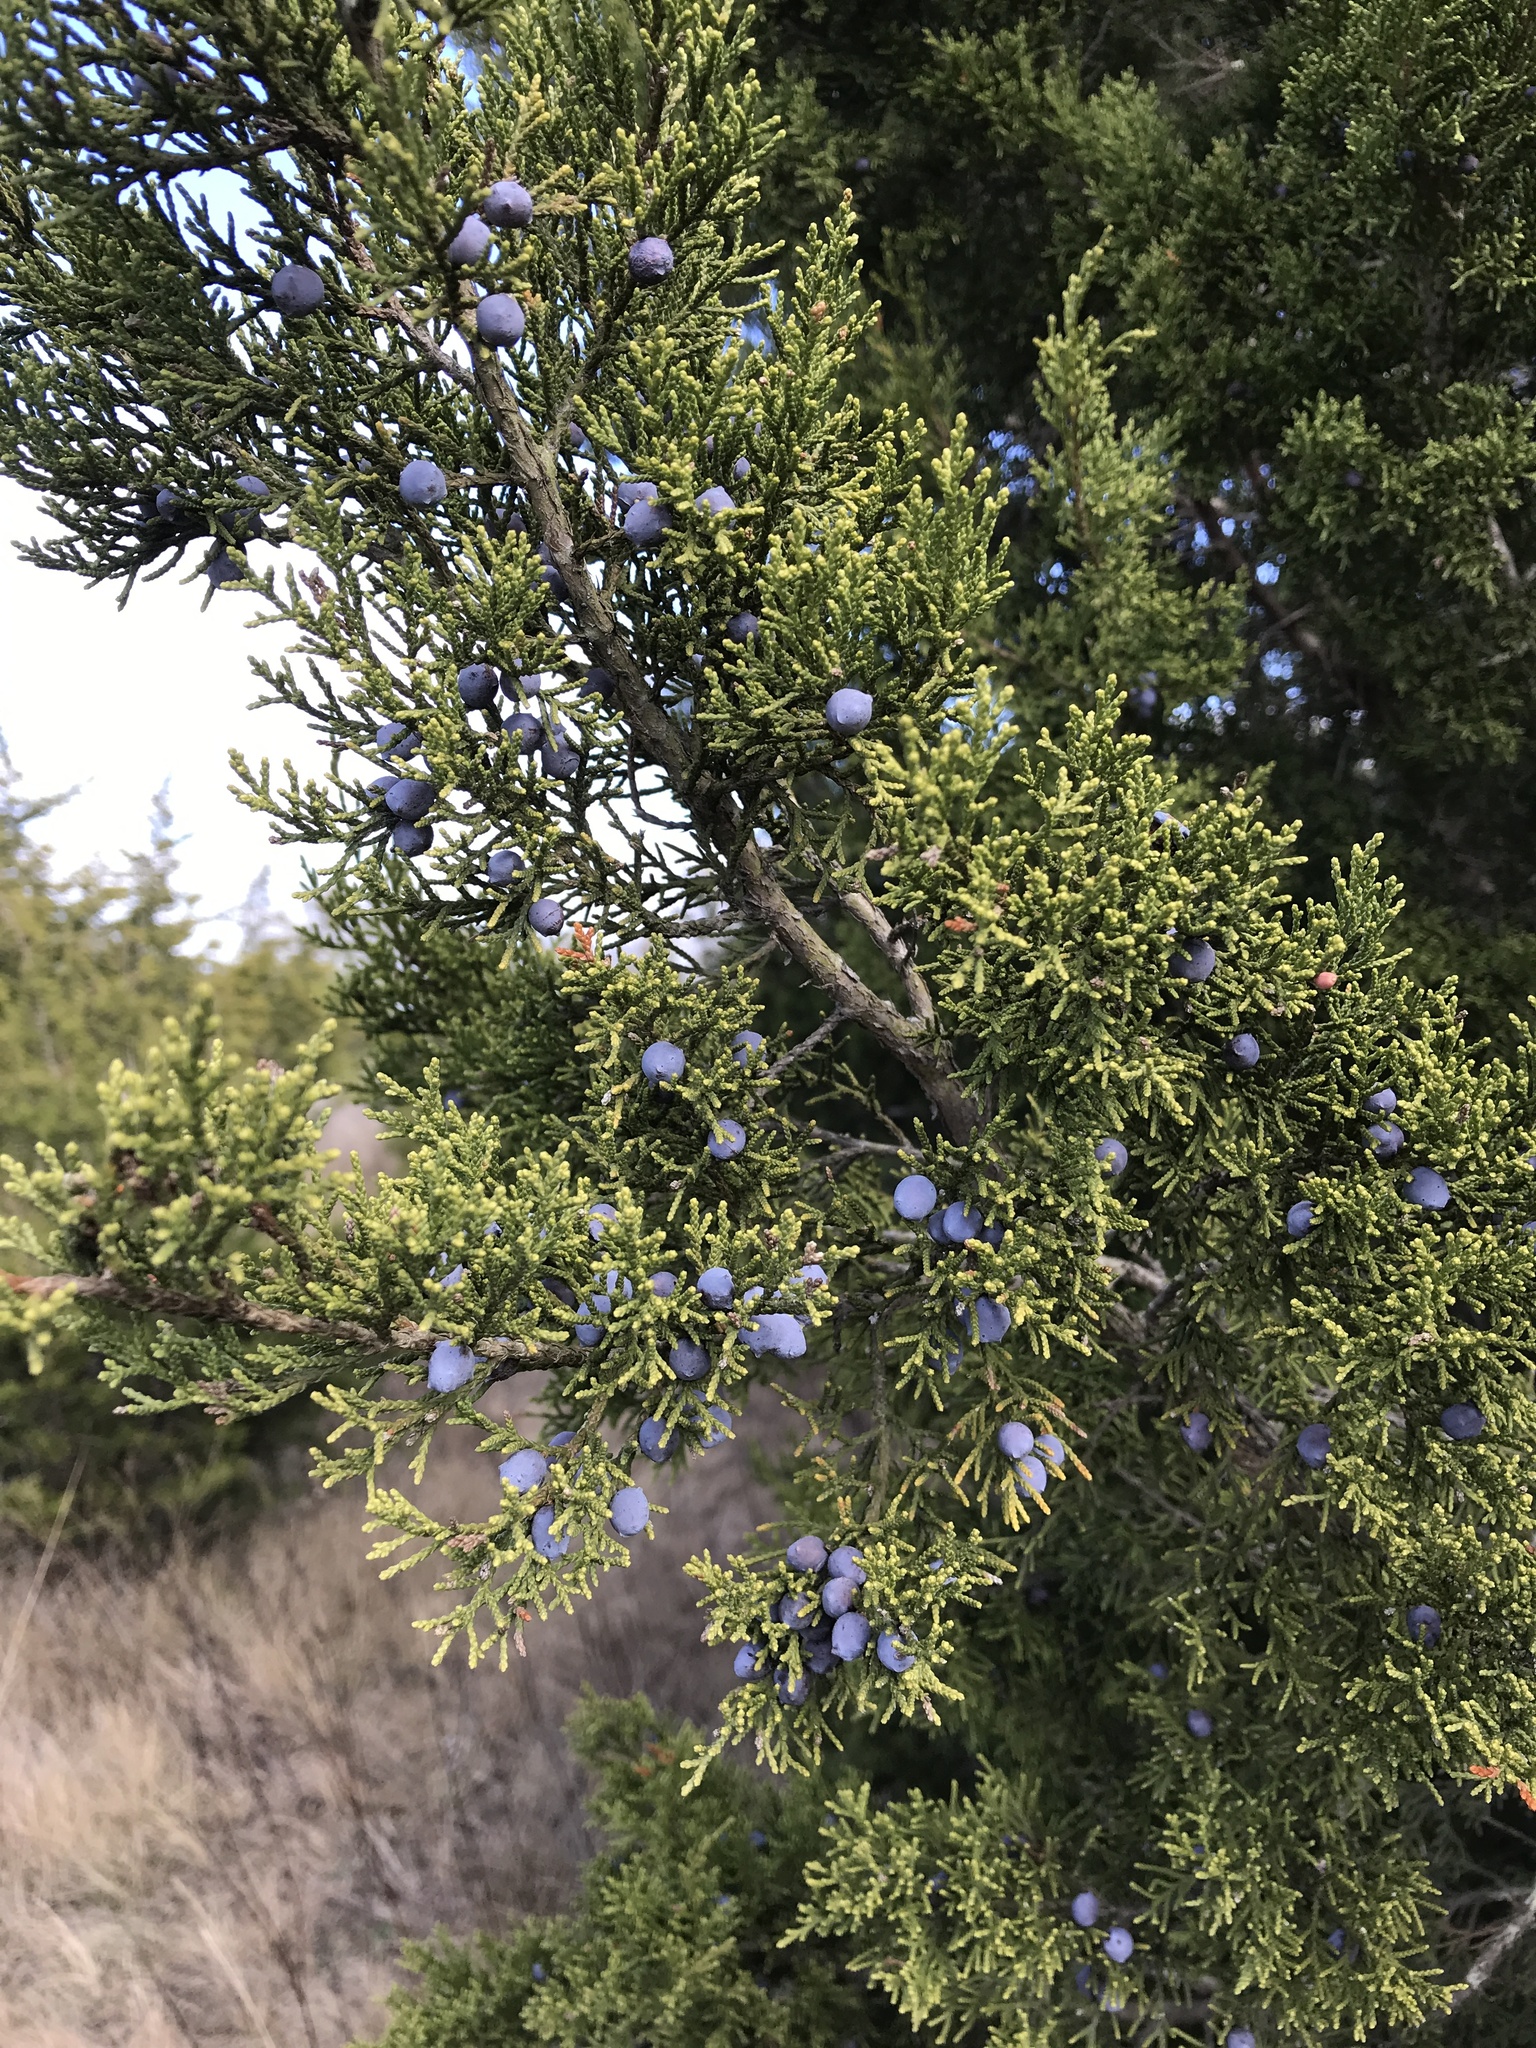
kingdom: Plantae
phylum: Tracheophyta
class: Pinopsida
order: Pinales
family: Cupressaceae
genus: Juniperus
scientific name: Juniperus ashei
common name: Mexican juniper
